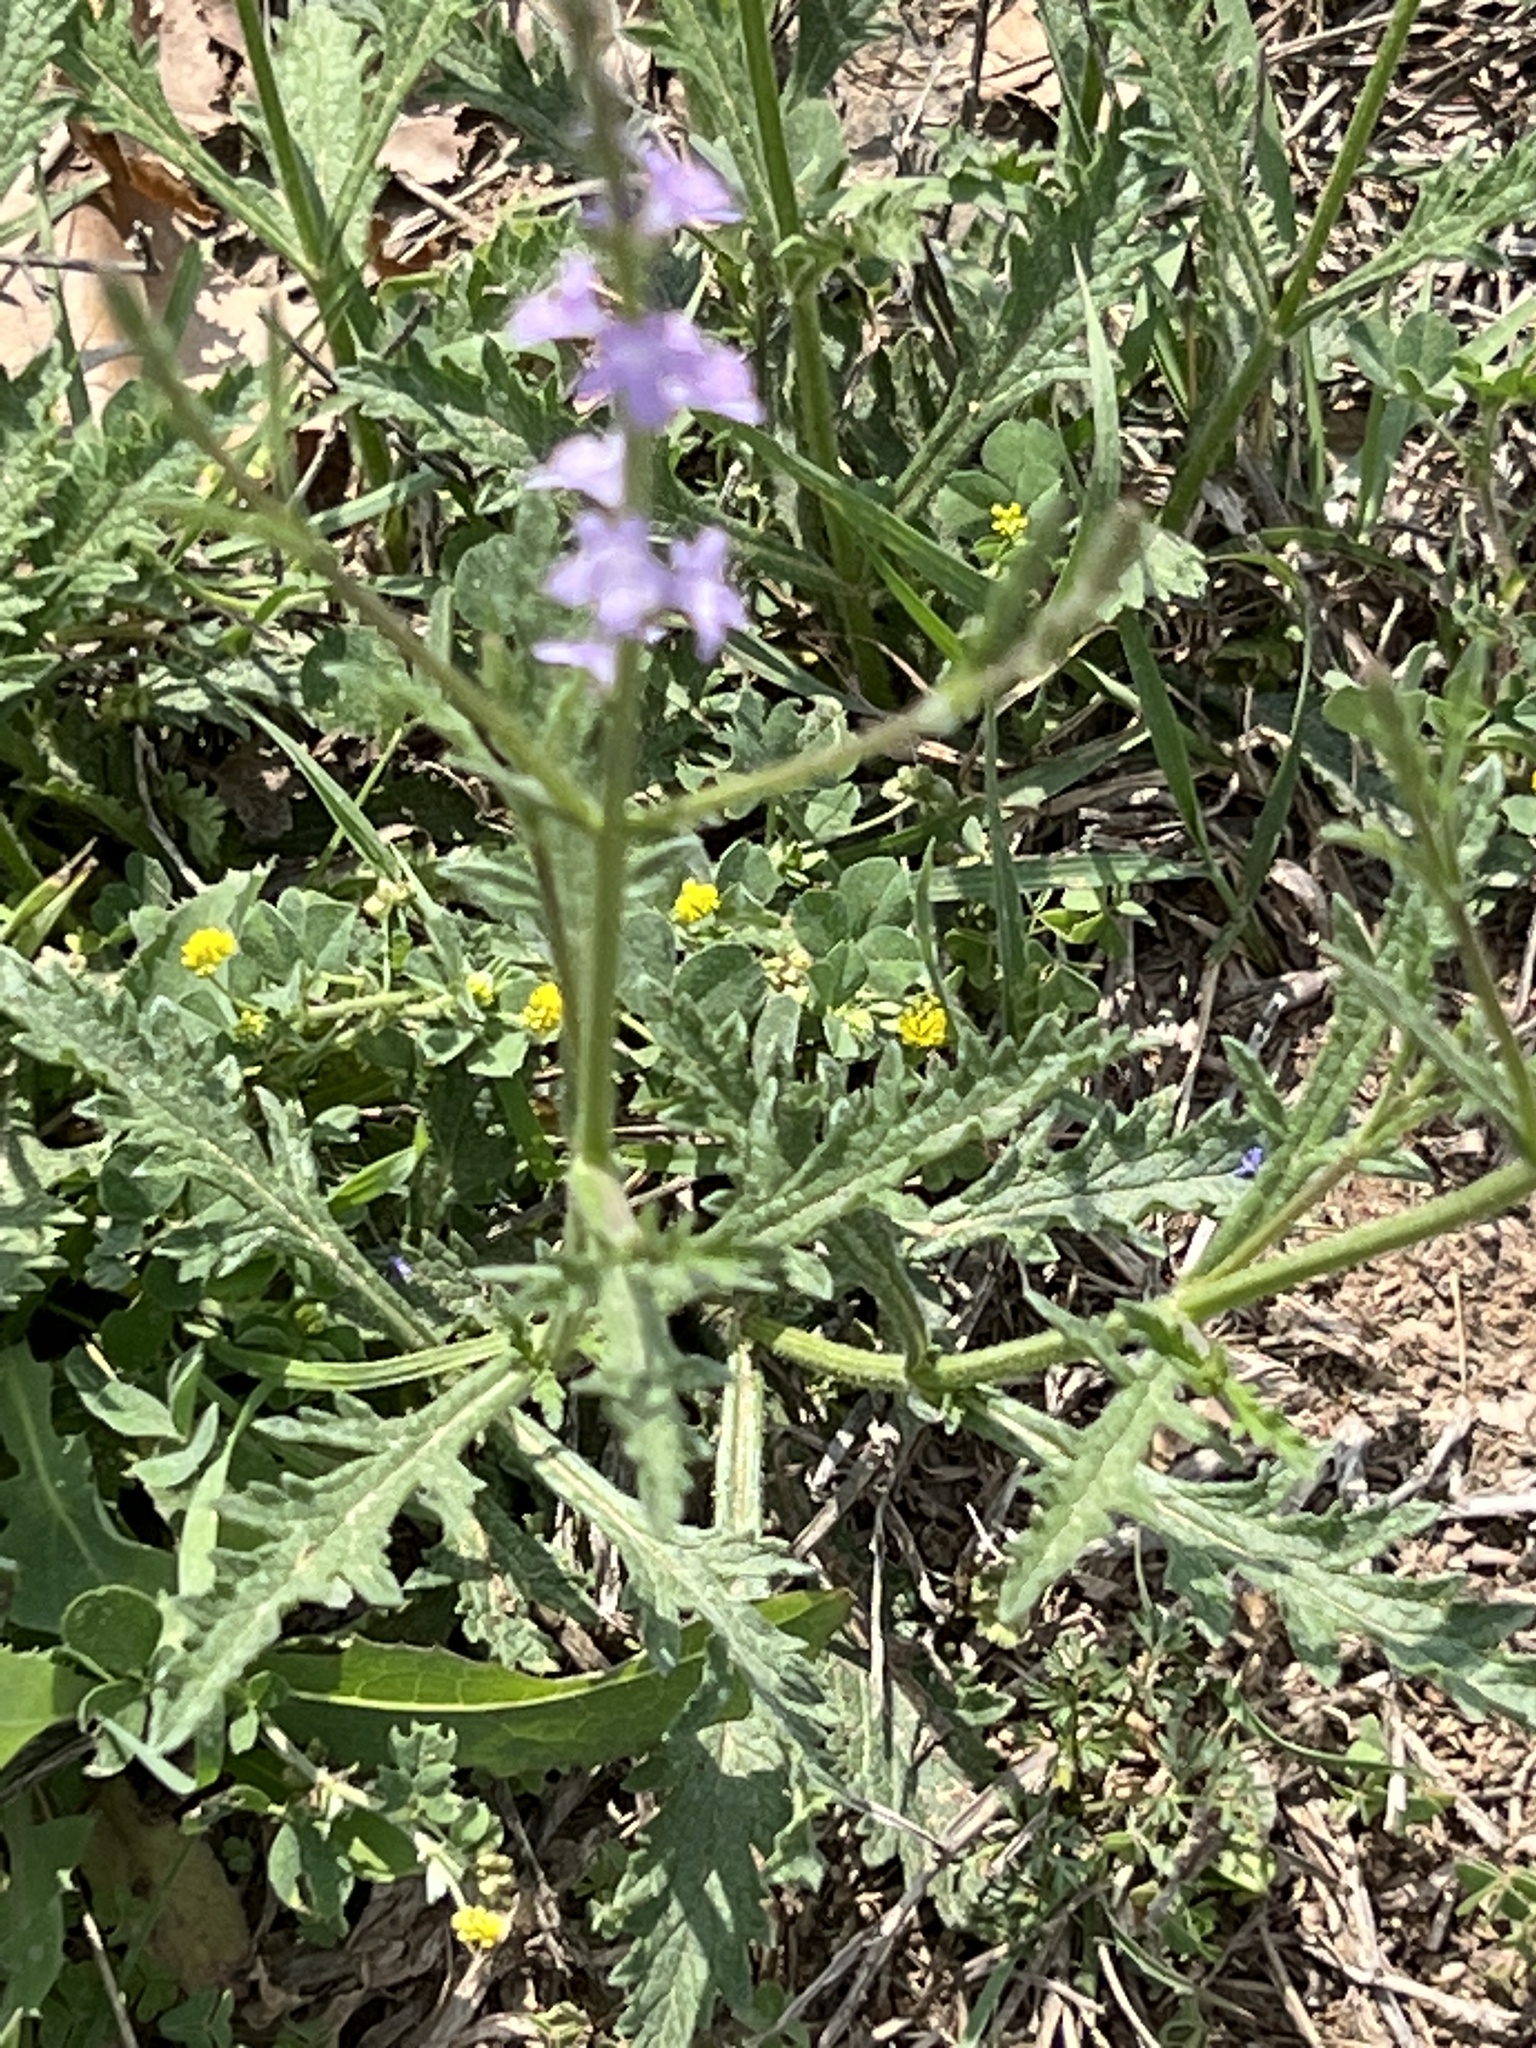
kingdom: Plantae
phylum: Tracheophyta
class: Magnoliopsida
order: Lamiales
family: Verbenaceae
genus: Verbena
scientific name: Verbena halei
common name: Texas vervain
